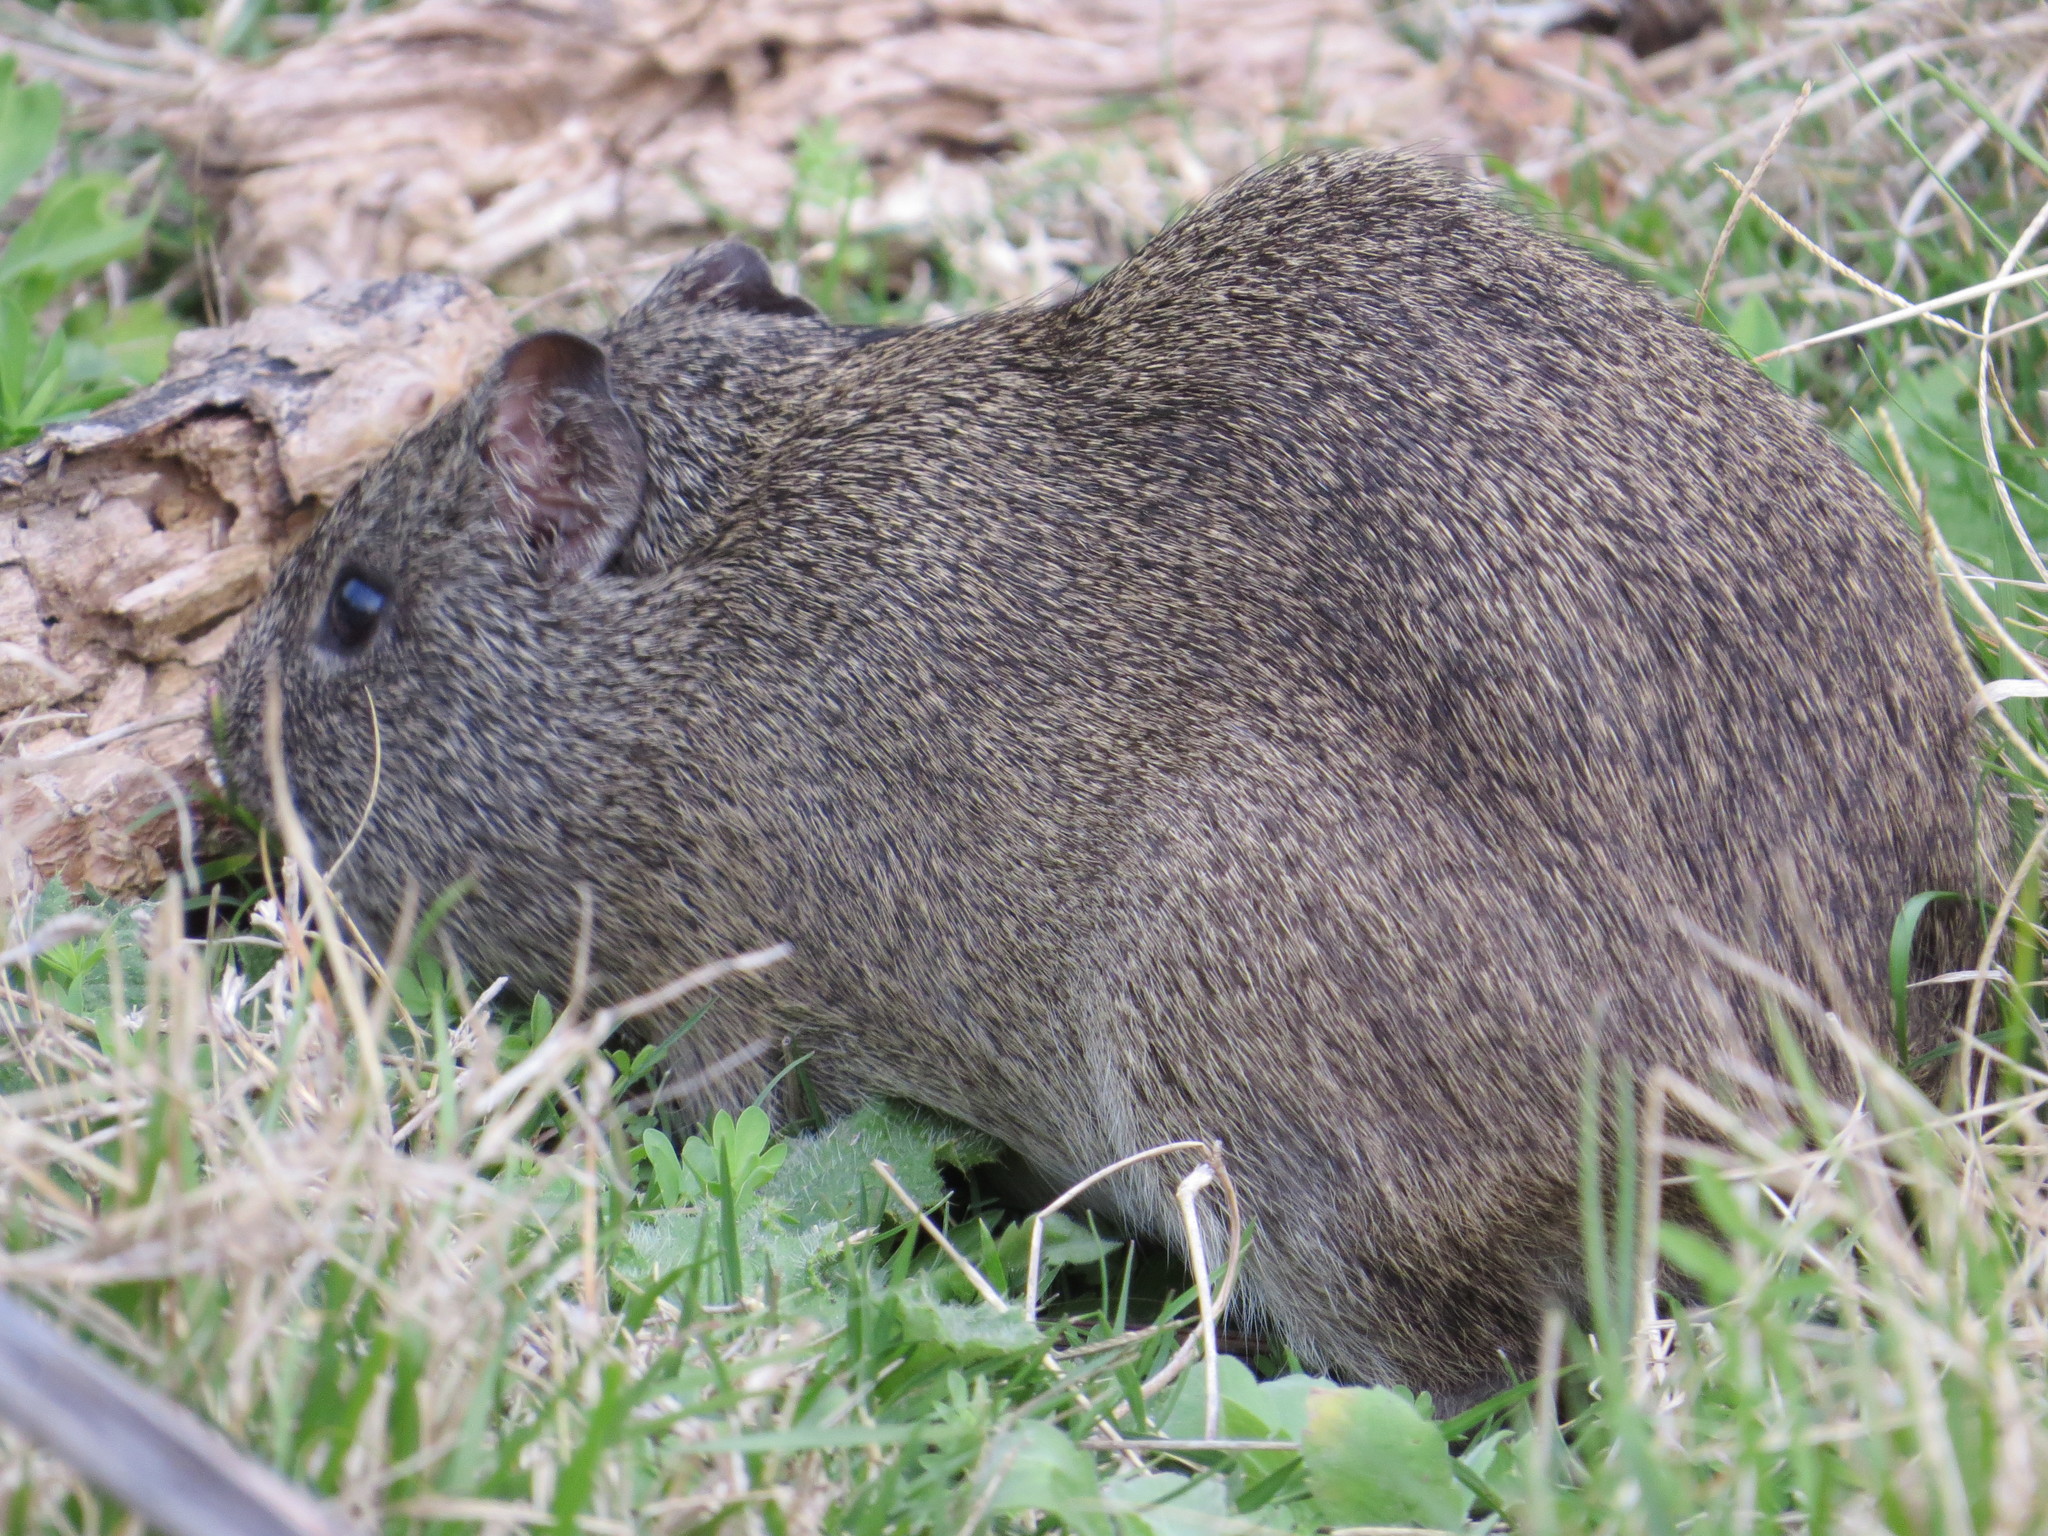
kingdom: Animalia
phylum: Chordata
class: Mammalia
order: Rodentia
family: Caviidae
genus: Cavia
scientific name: Cavia aperea
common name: Brazilian guinea pig
